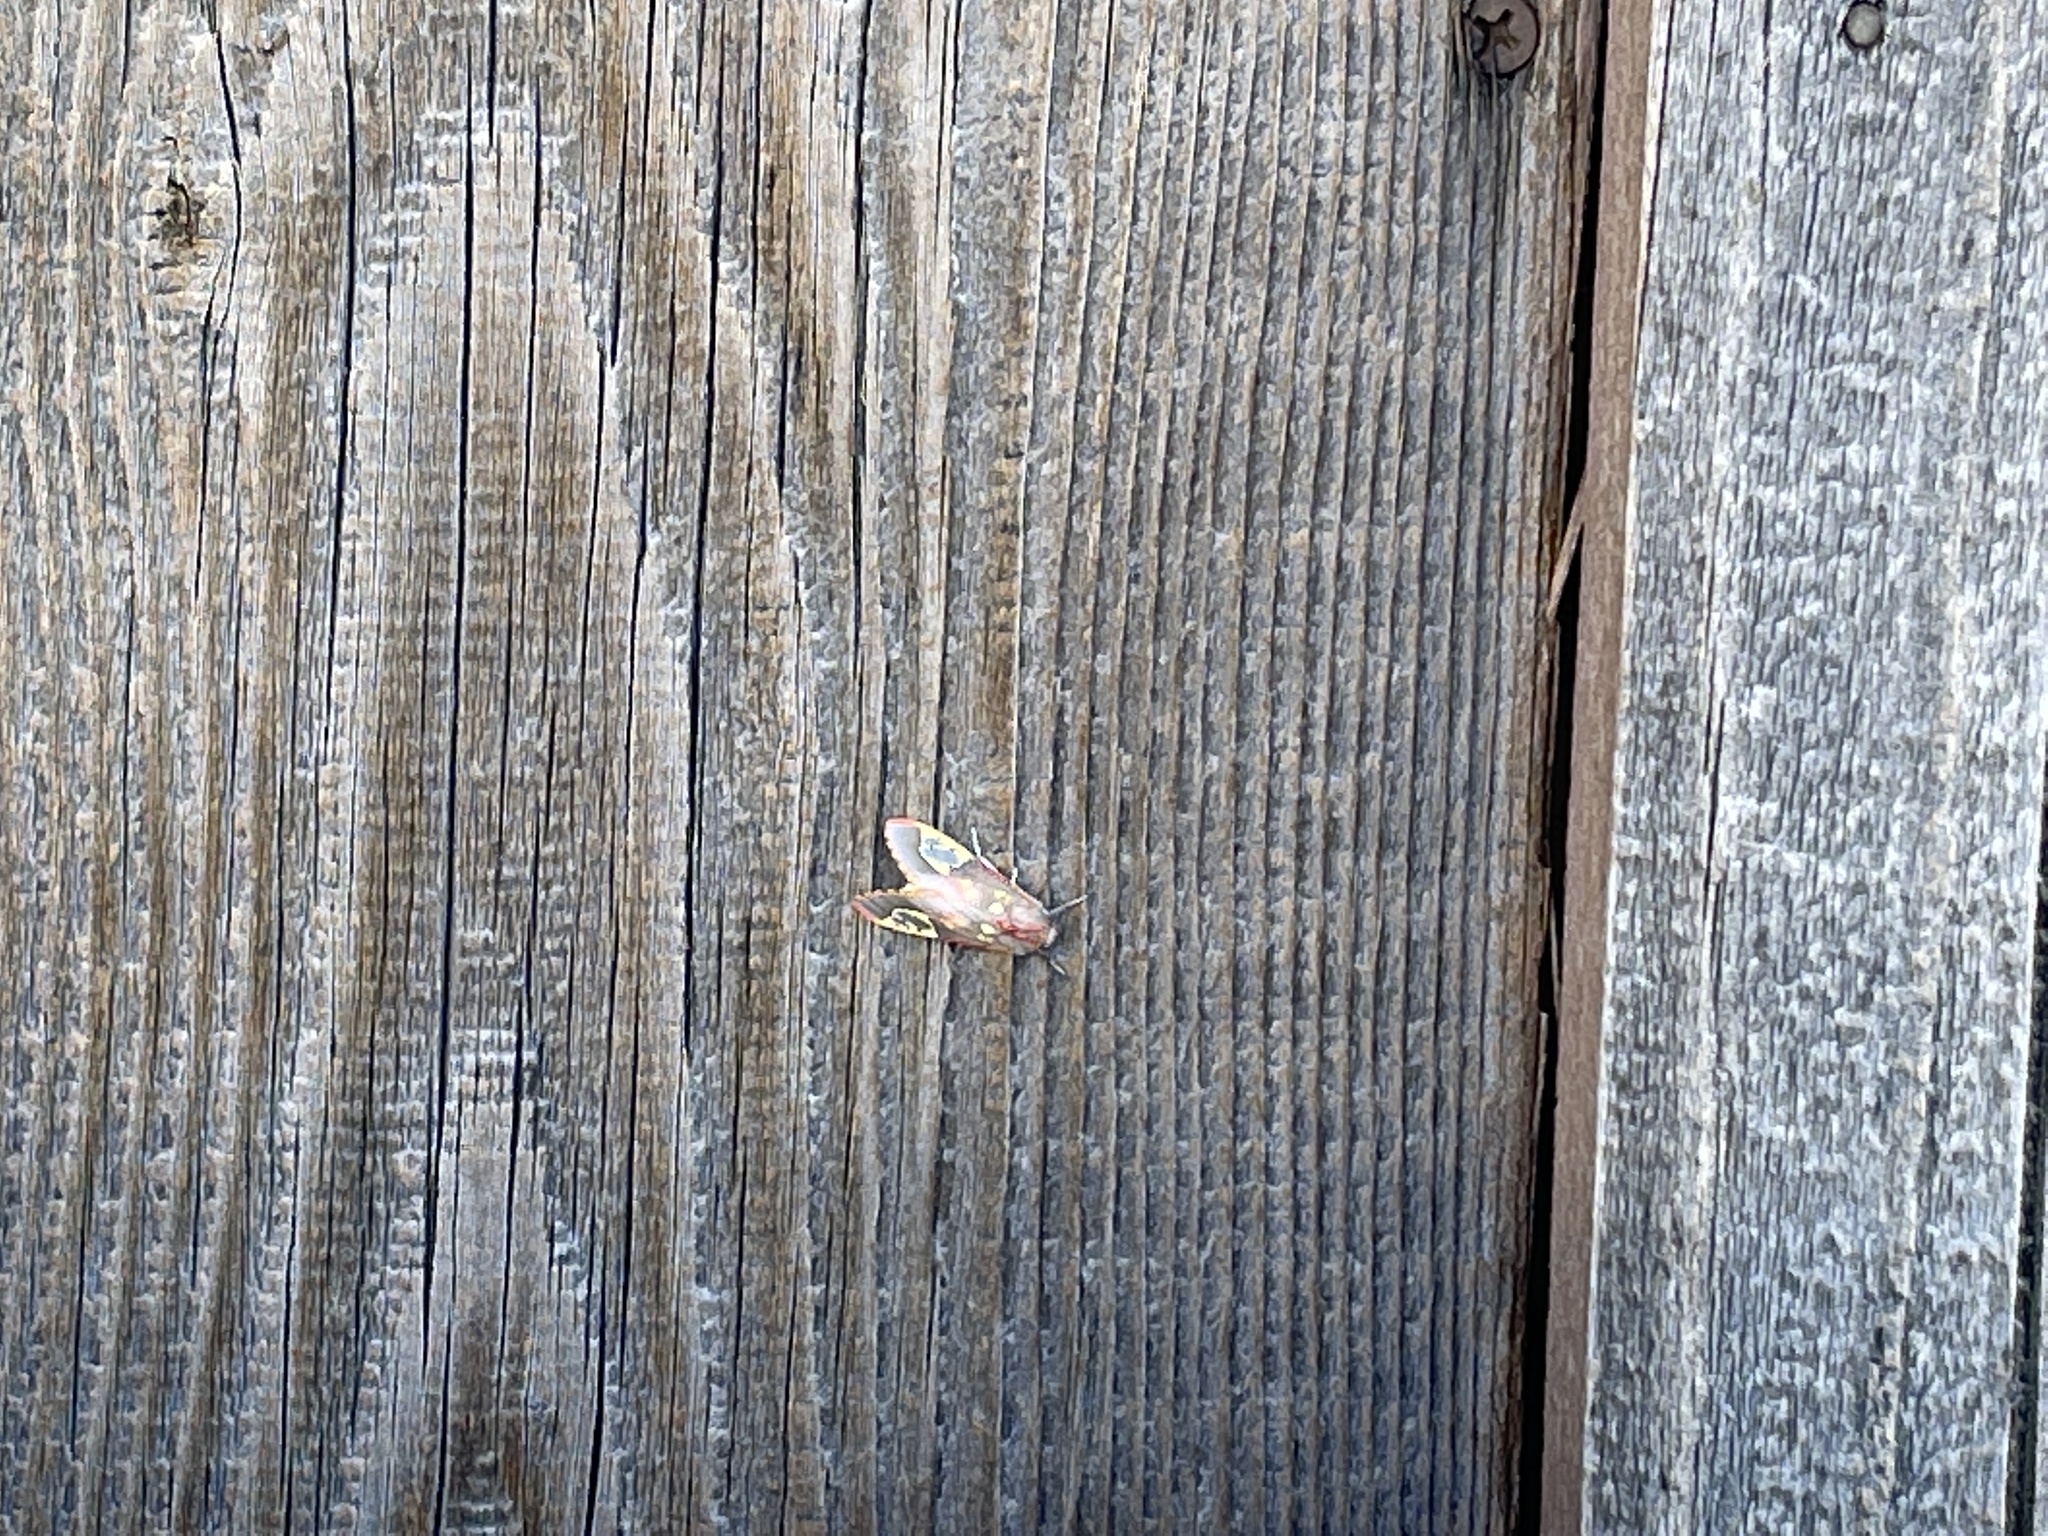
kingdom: Animalia
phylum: Arthropoda
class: Insecta
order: Lepidoptera
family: Erebidae
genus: Bertholdia
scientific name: Bertholdia trigona
